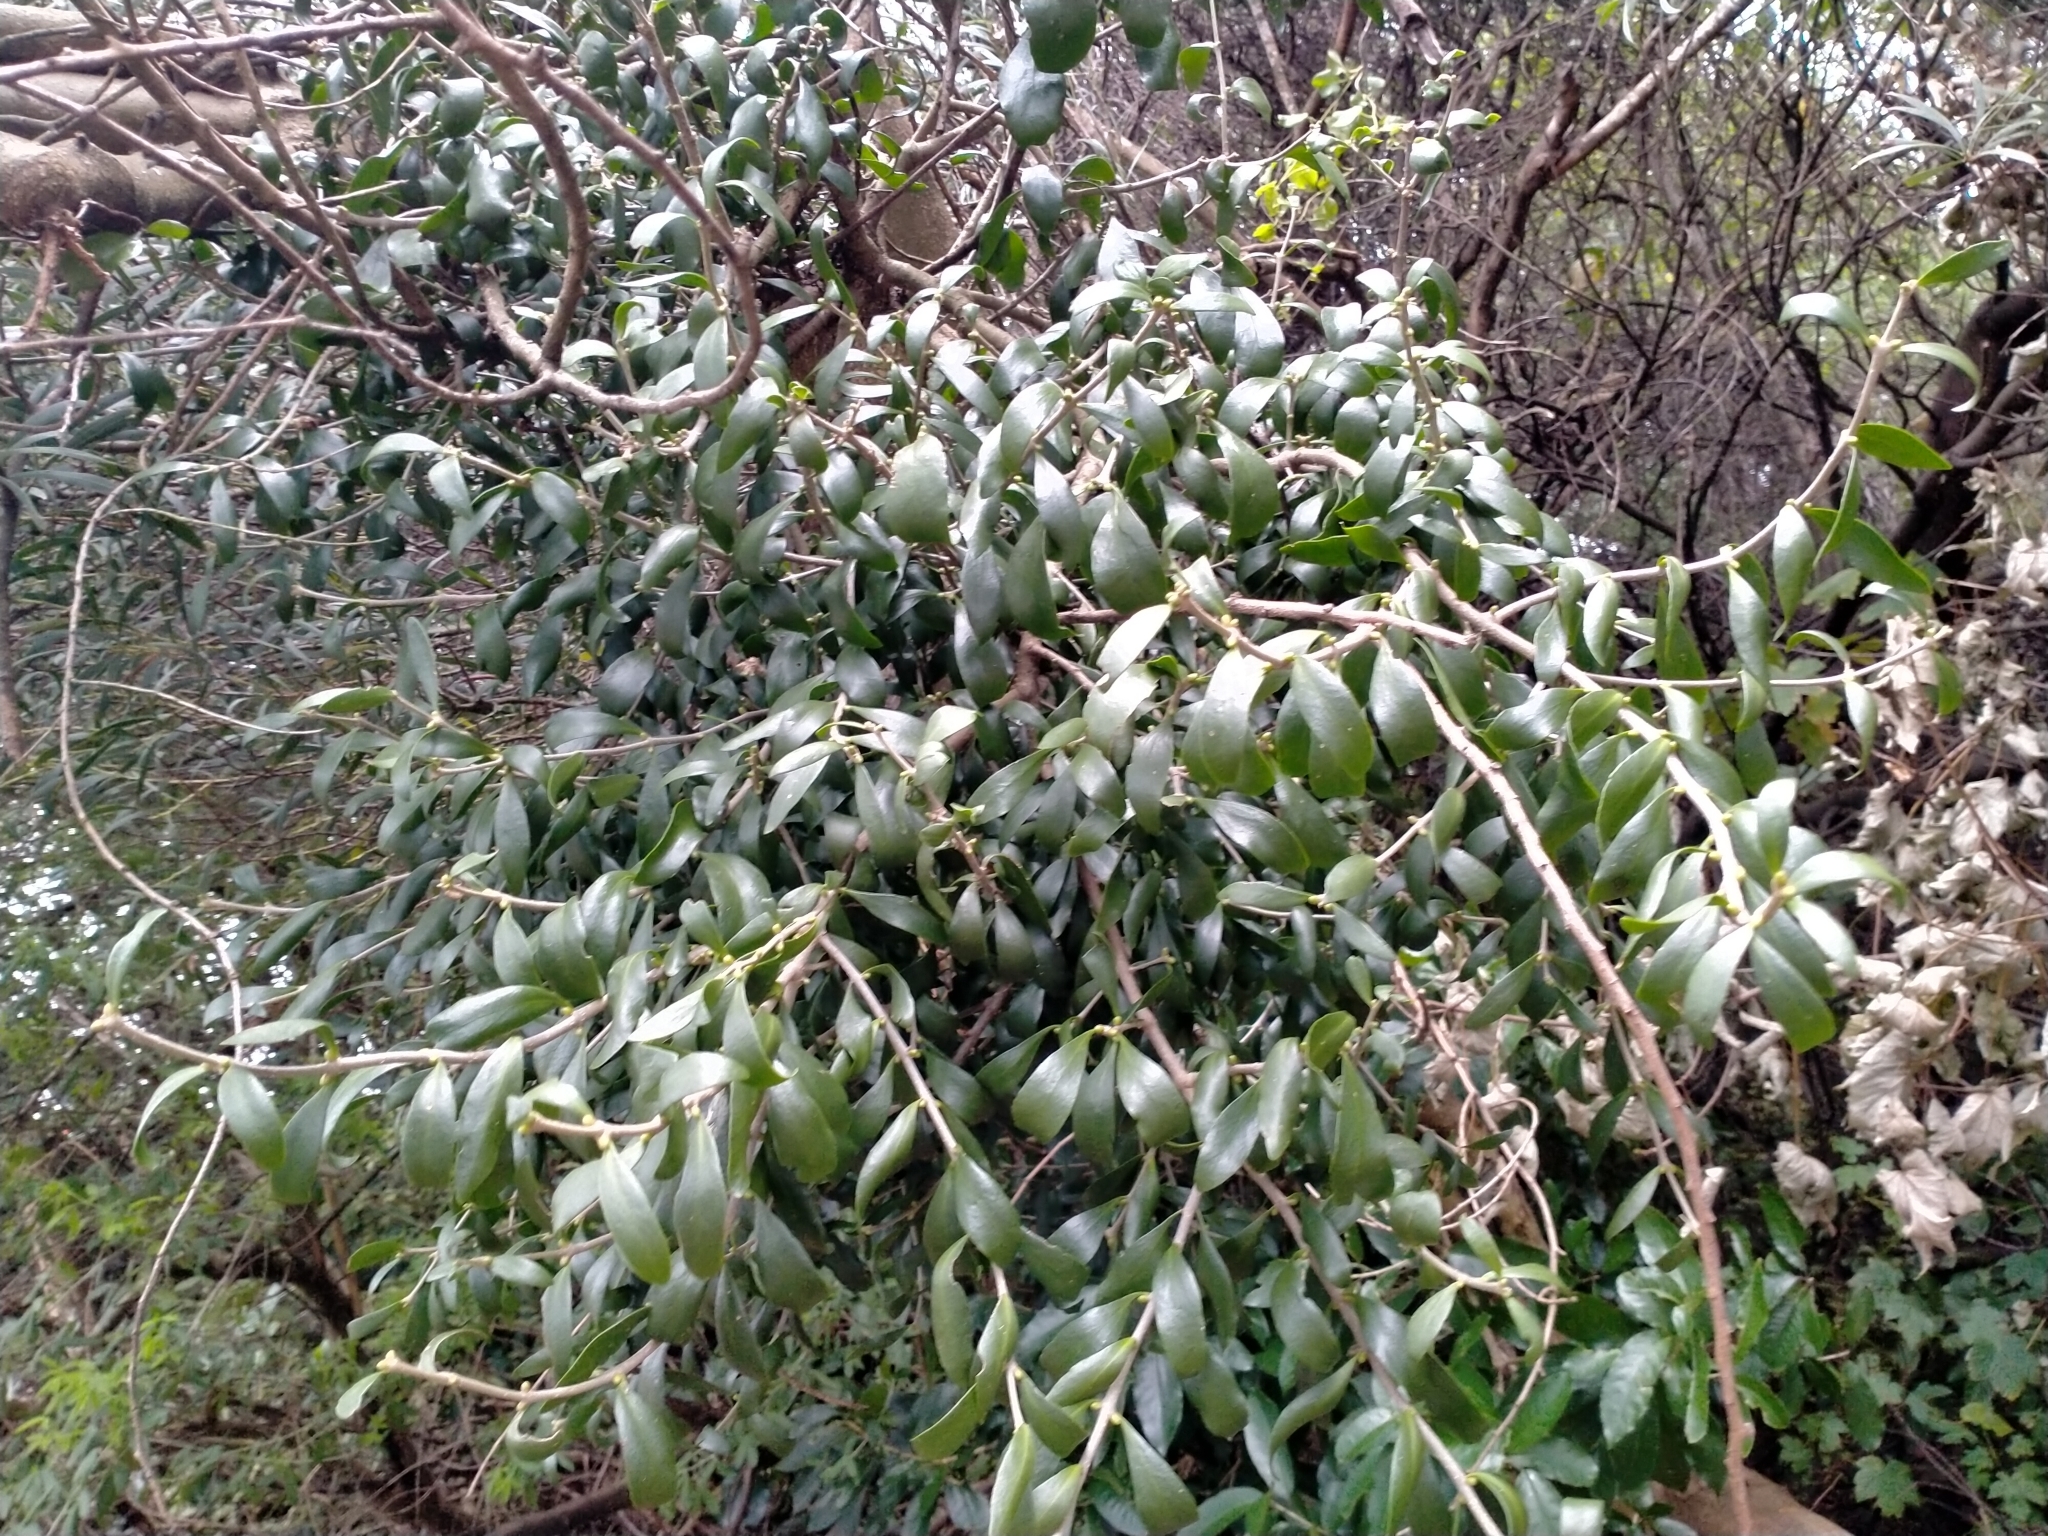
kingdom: Plantae
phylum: Tracheophyta
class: Magnoliopsida
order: Santalales
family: Loranthaceae
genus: Tupeia
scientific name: Tupeia antarctica
